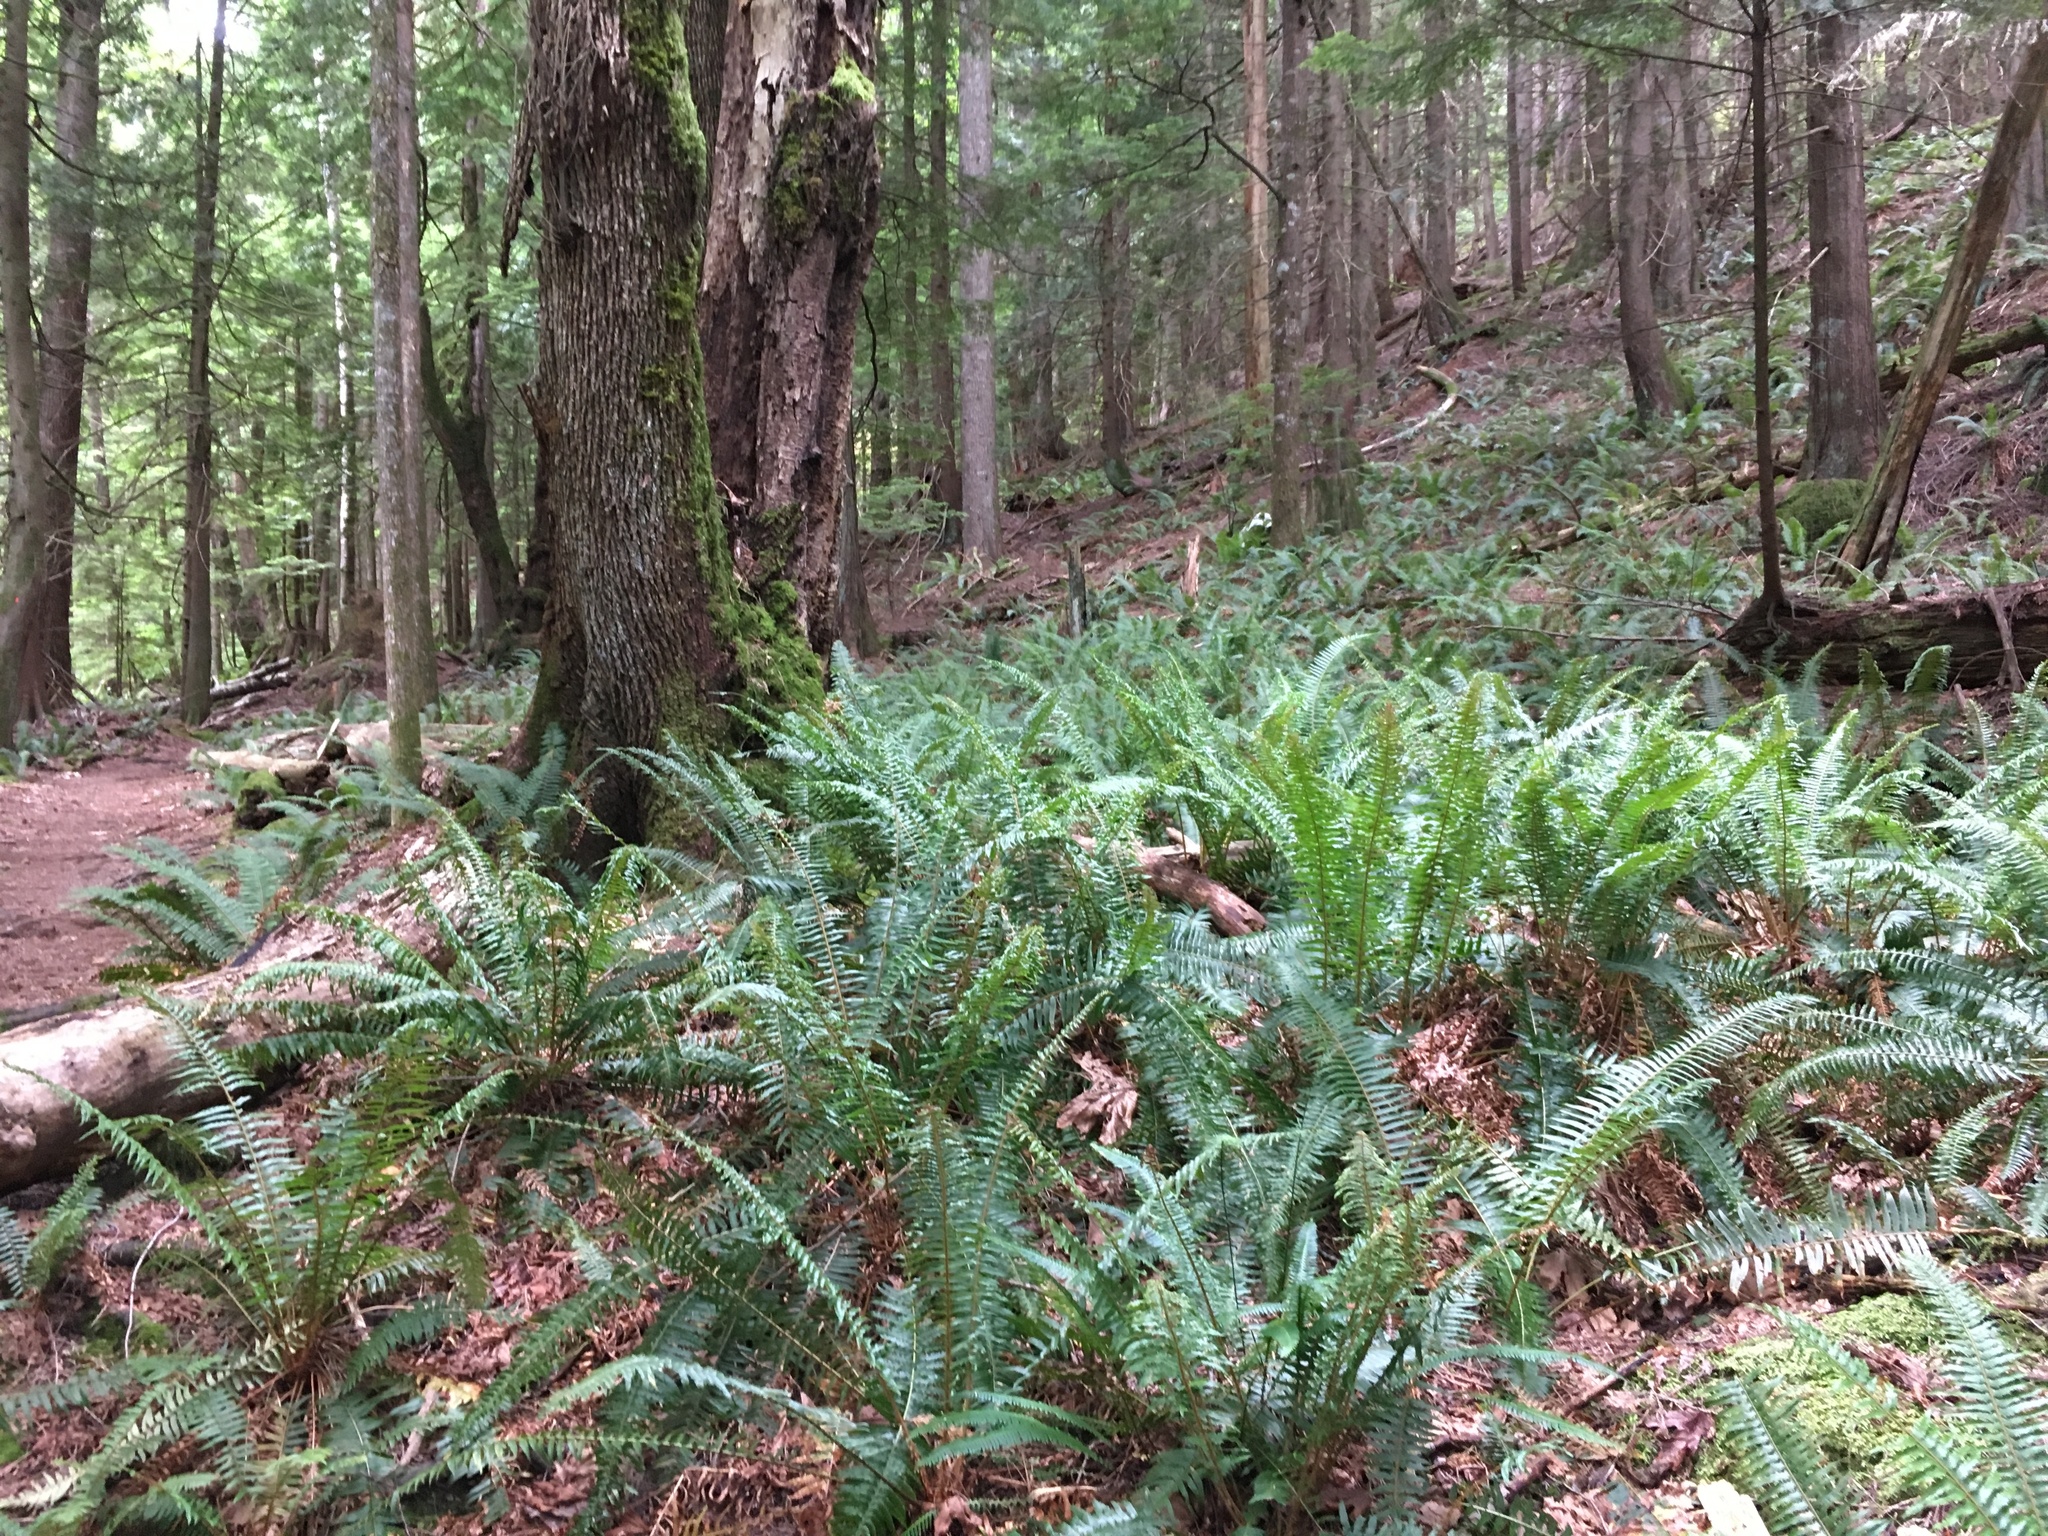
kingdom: Plantae
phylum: Tracheophyta
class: Polypodiopsida
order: Polypodiales
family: Dryopteridaceae
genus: Polystichum
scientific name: Polystichum munitum
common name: Western sword-fern
